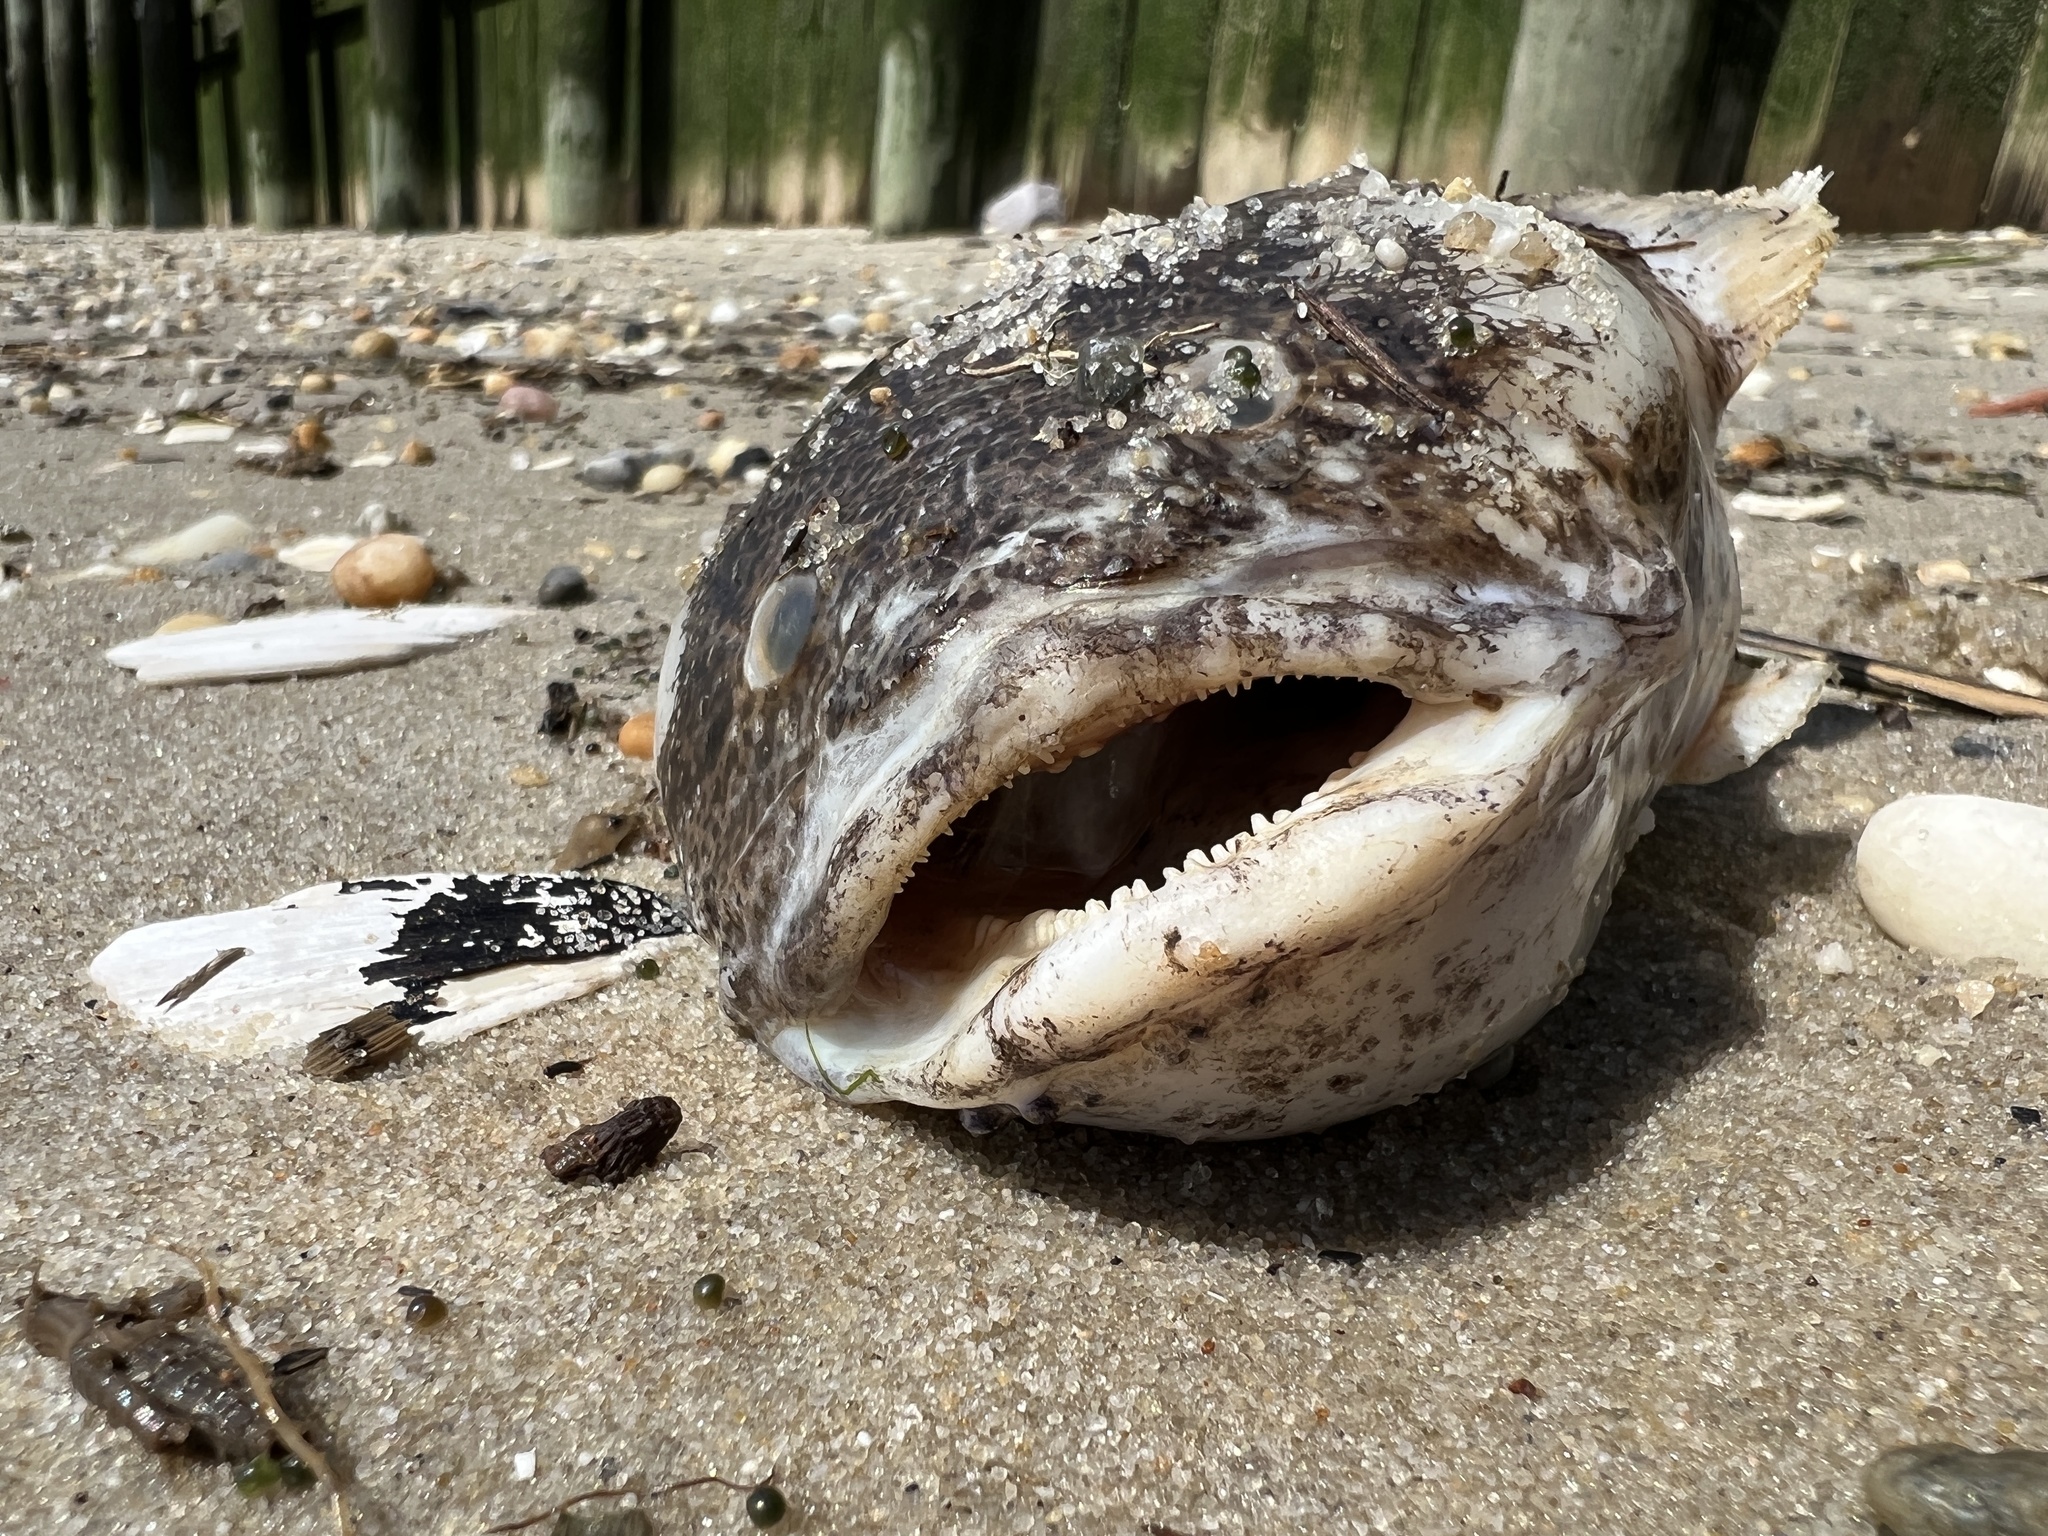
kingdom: Animalia
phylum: Chordata
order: Batrachoidiformes
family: Batrachoididae
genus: Opsanus
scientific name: Opsanus tau
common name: Oyster toadfish
